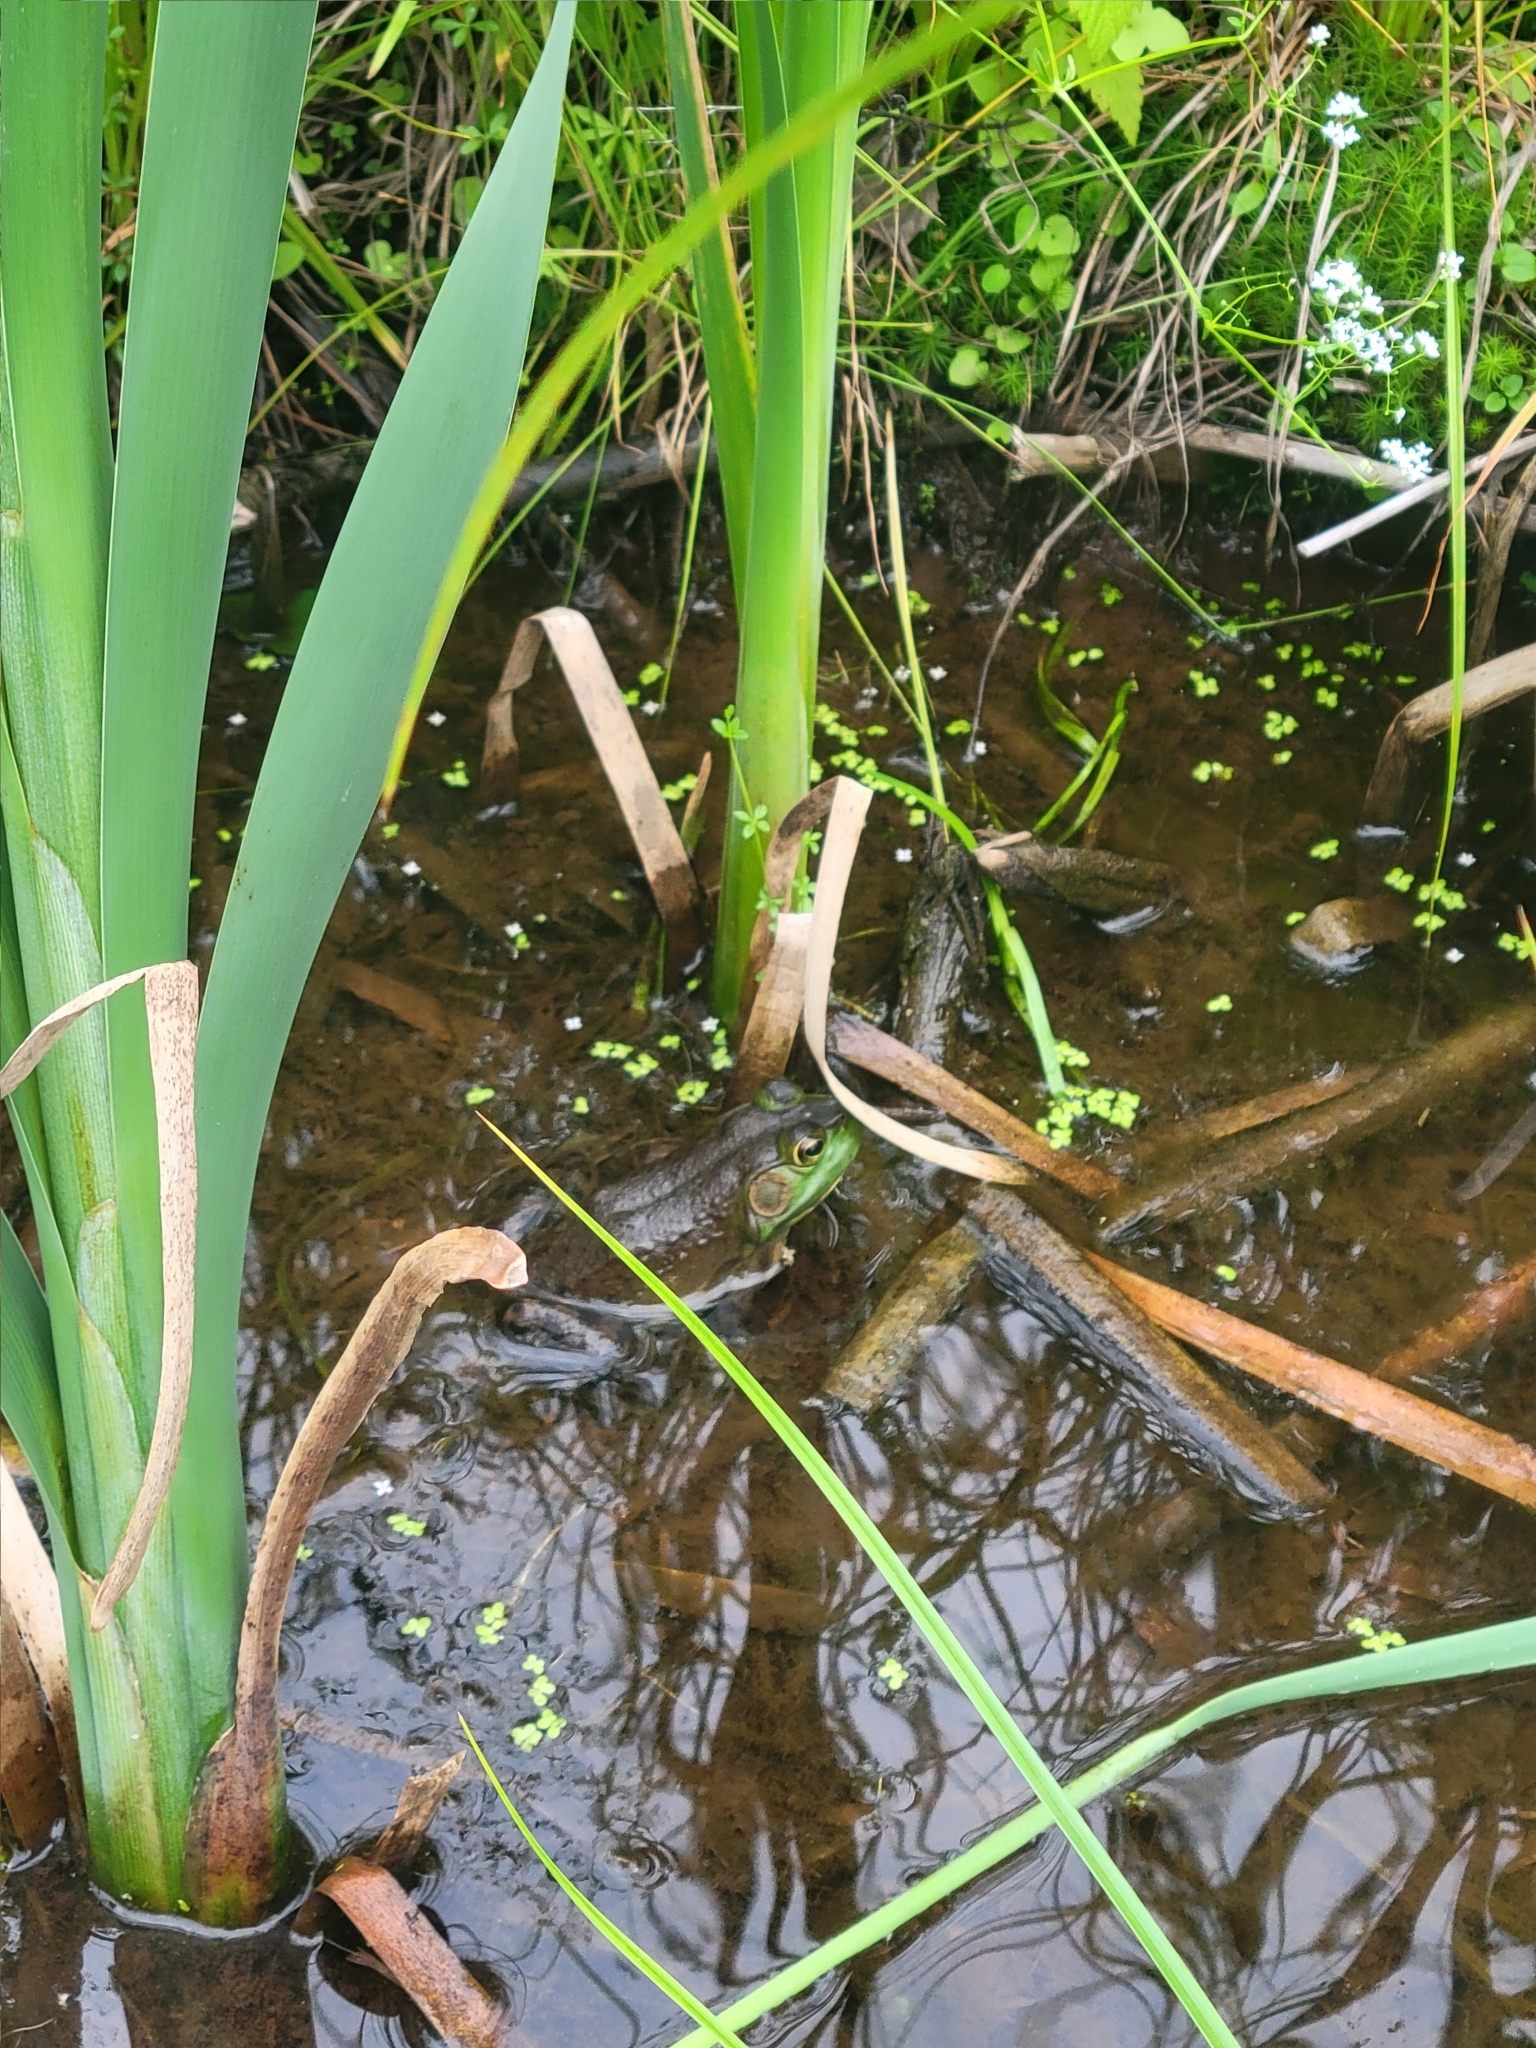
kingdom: Animalia
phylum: Chordata
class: Amphibia
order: Anura
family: Ranidae
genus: Lithobates
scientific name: Lithobates catesbeianus
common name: American bullfrog
